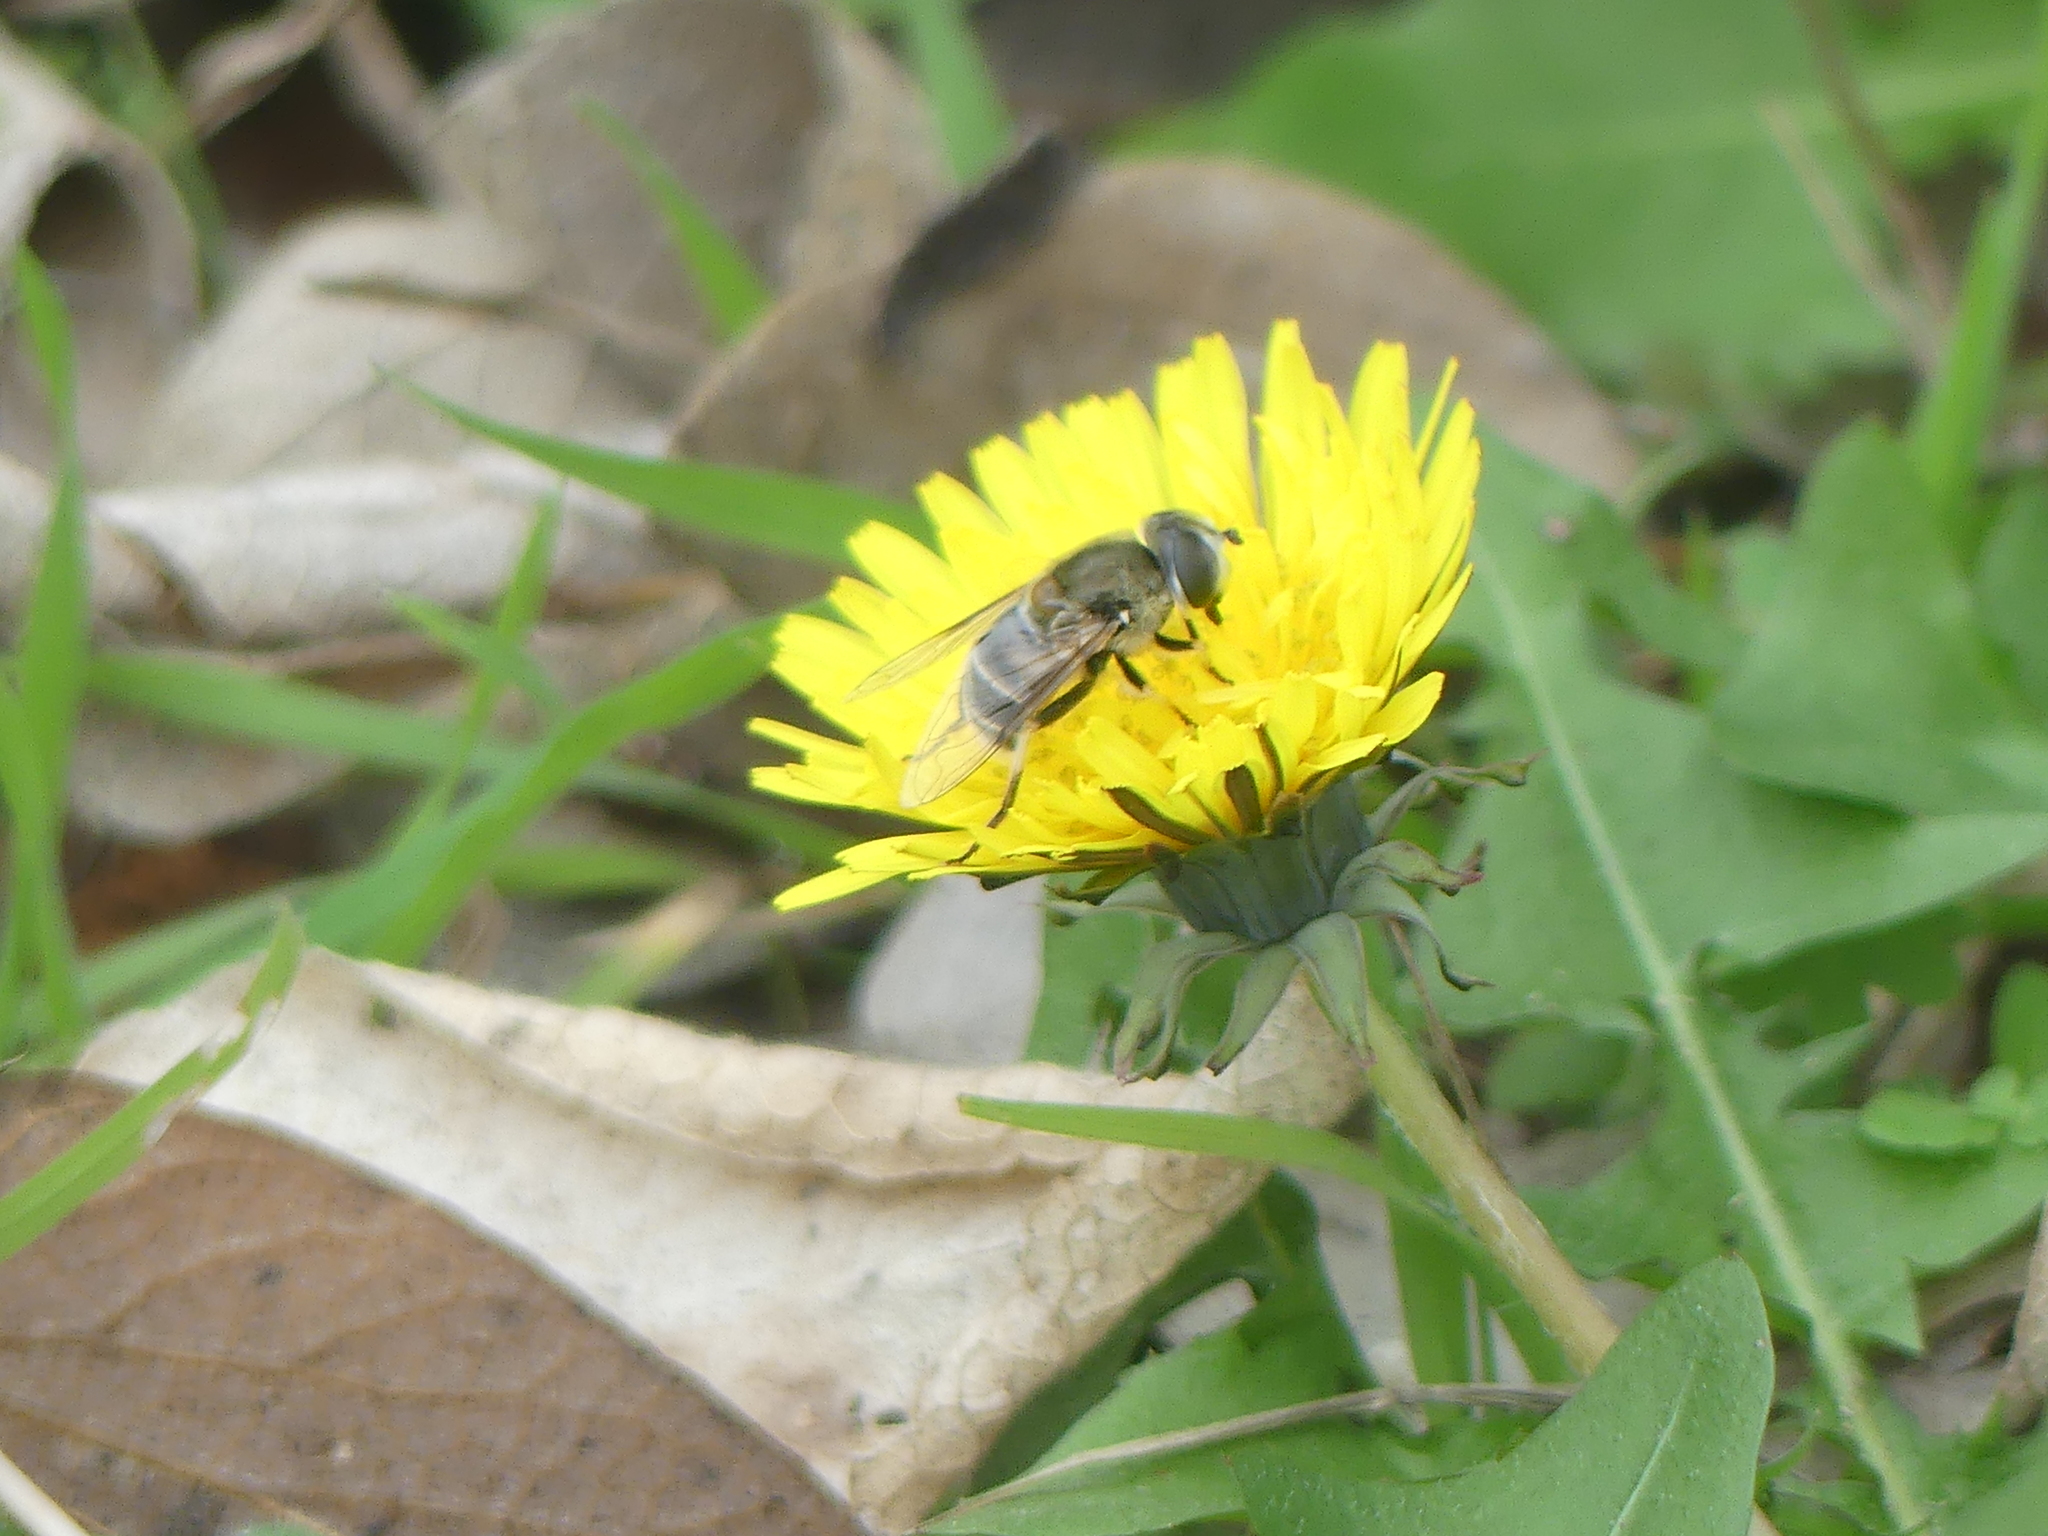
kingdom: Animalia
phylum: Arthropoda
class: Insecta
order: Diptera
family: Syrphidae
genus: Eristalis
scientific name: Eristalis stipator
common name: Yellow-shouldered drone fly
